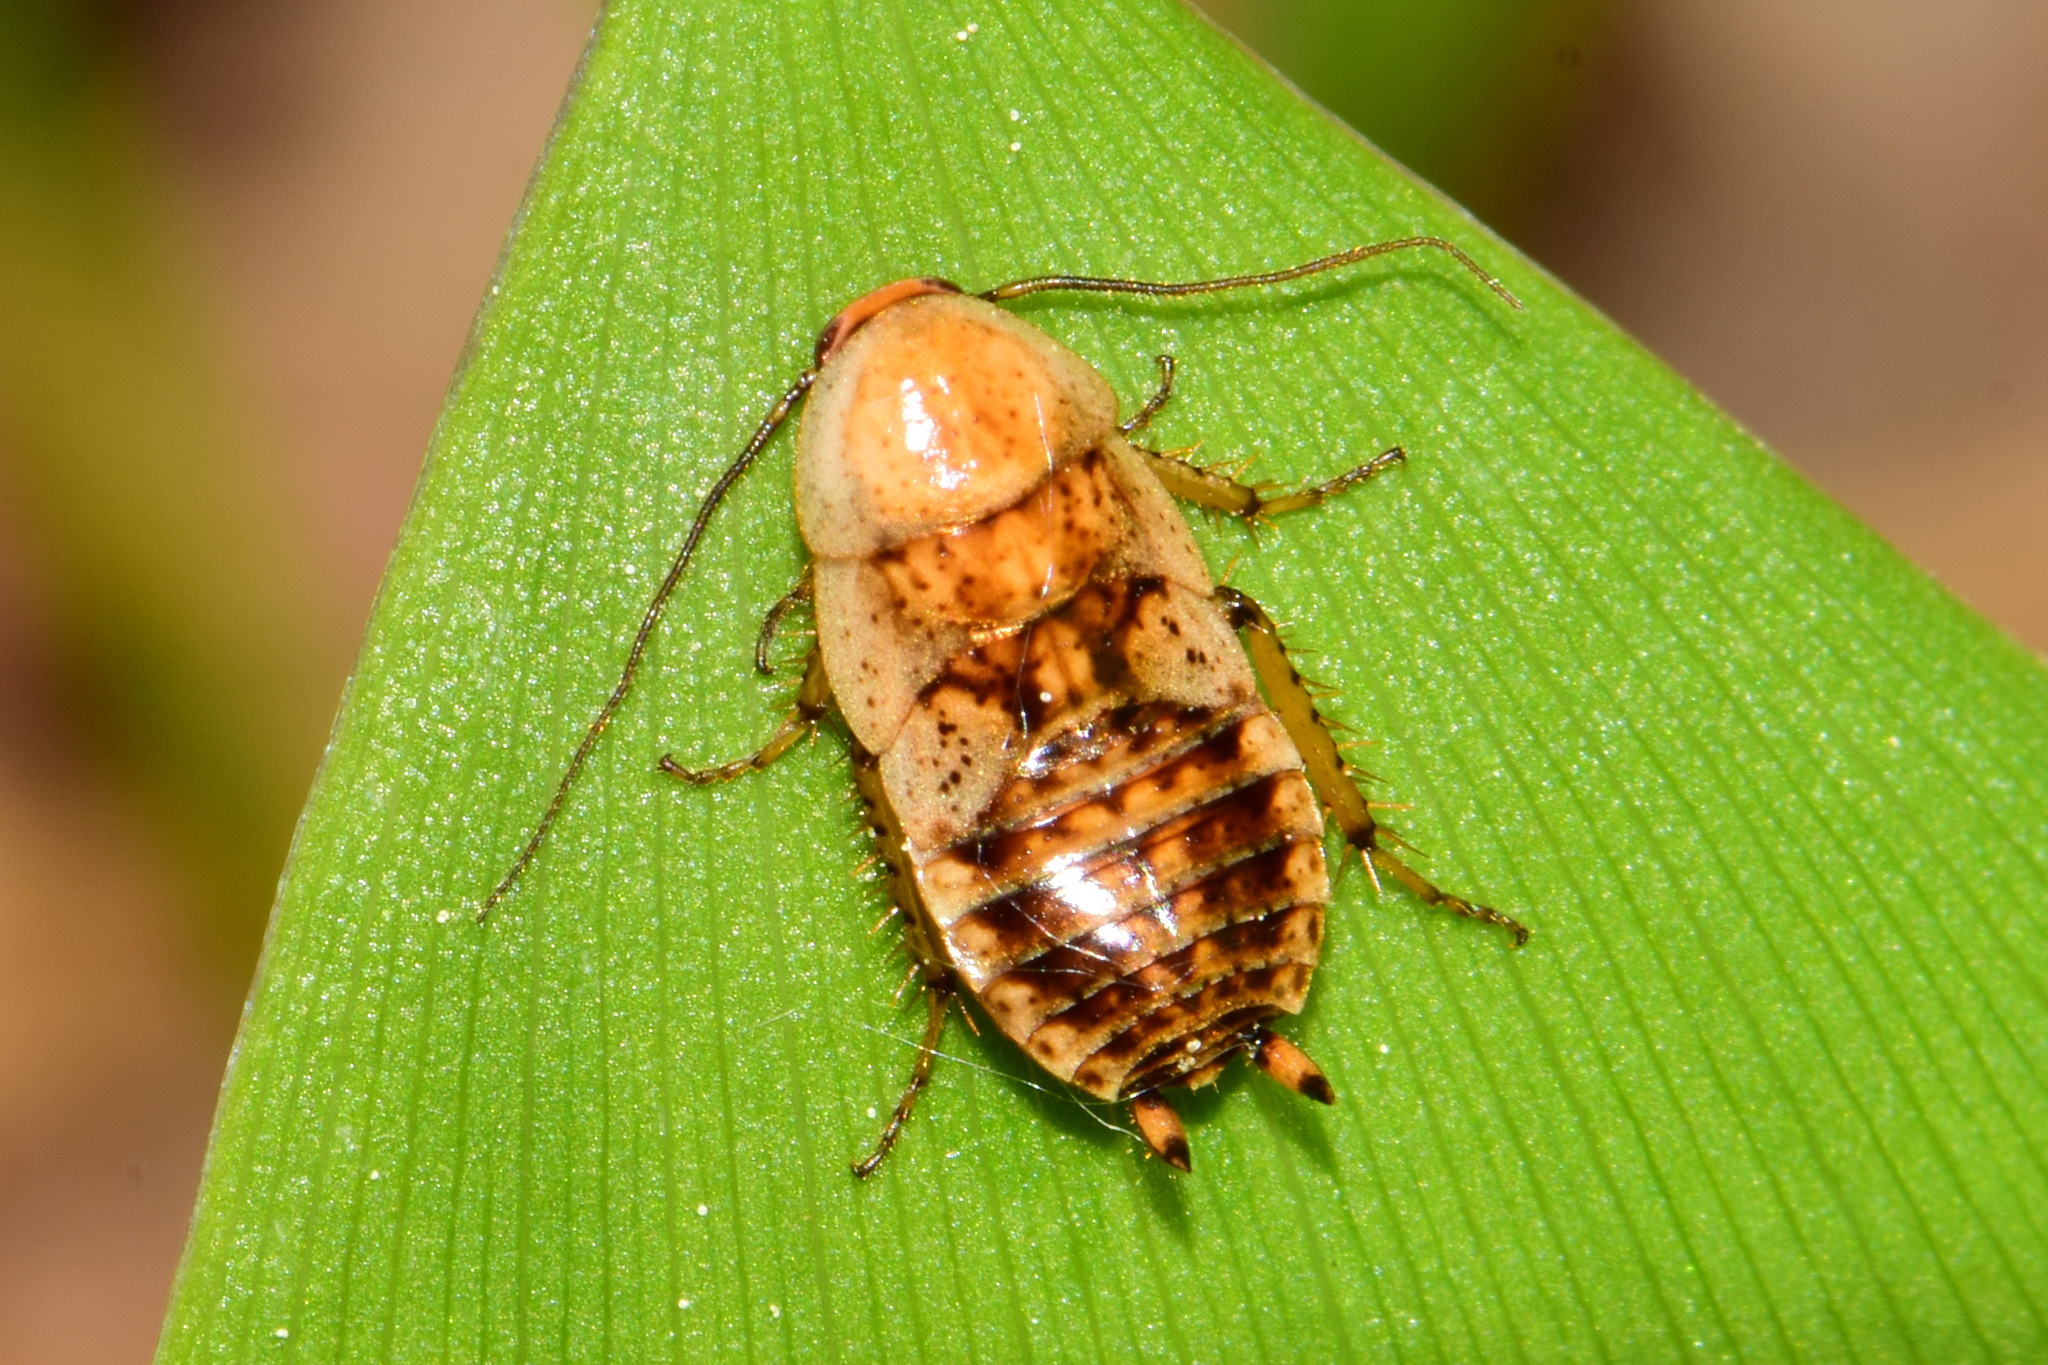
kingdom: Animalia
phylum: Arthropoda
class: Insecta
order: Blattodea
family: Ectobiidae
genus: Ectobius
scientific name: Ectobius lapponicus
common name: Dusky cockroach
